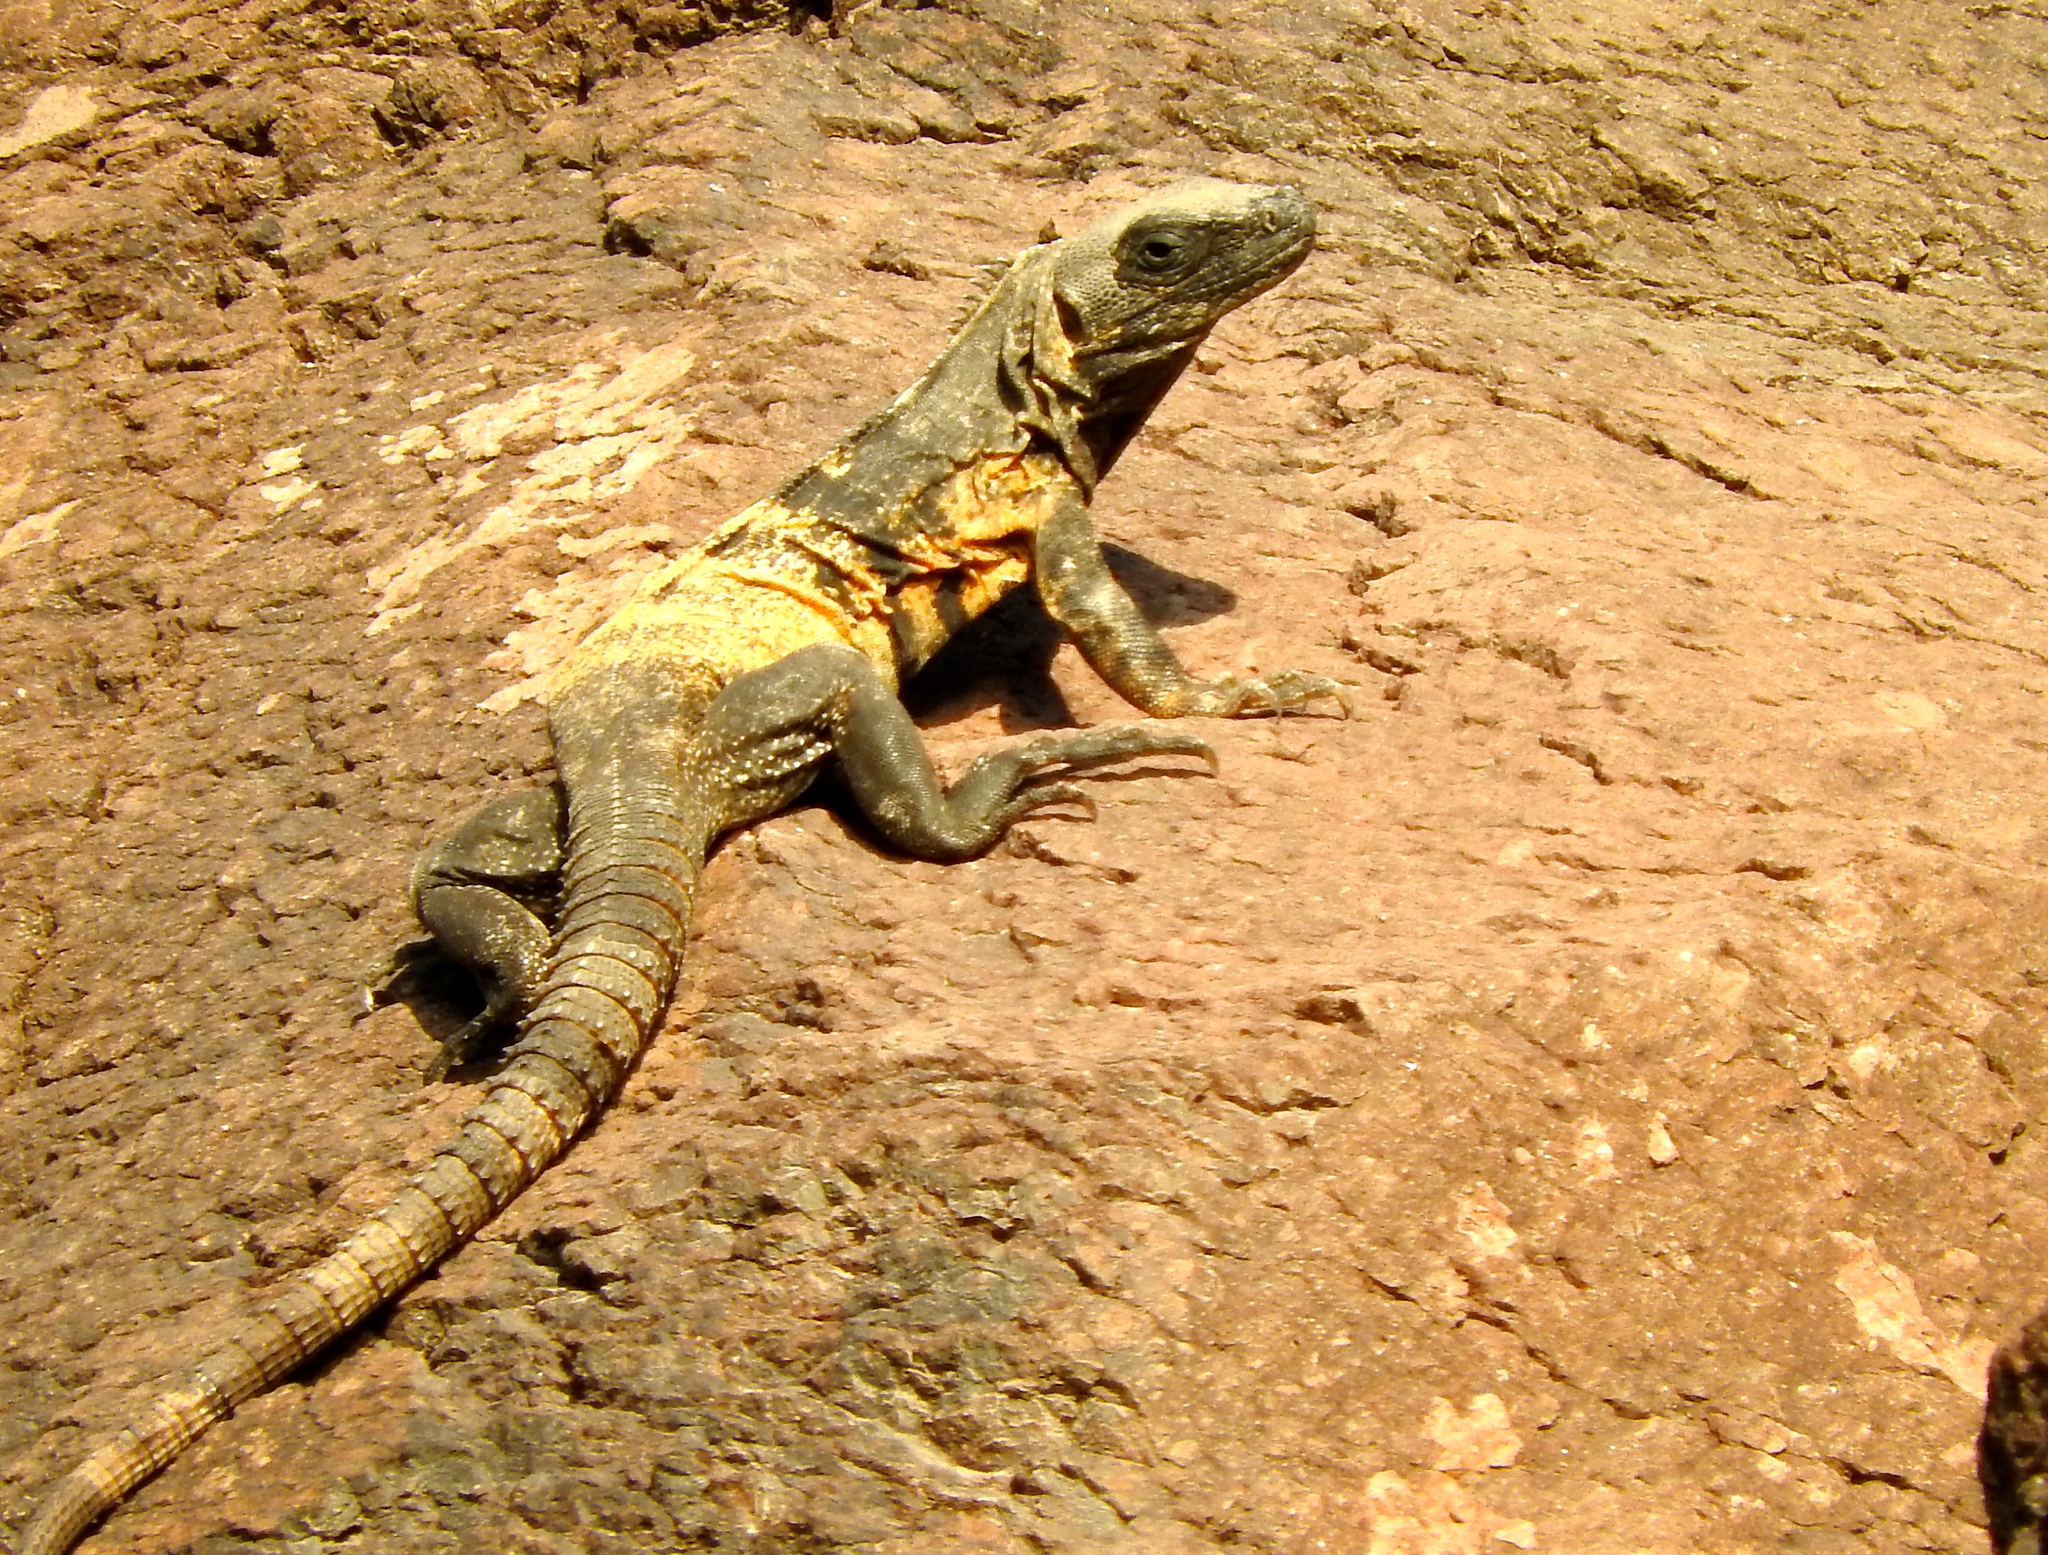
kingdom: Animalia
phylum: Chordata
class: Squamata
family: Iguanidae
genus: Ctenosaura
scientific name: Ctenosaura pectinata
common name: Guerreran spiny-tailed iguana
